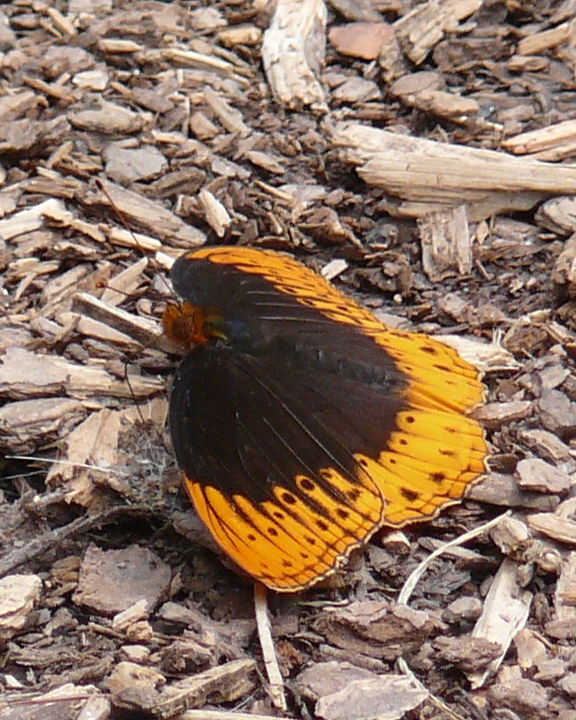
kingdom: Animalia
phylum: Arthropoda
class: Insecta
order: Lepidoptera
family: Nymphalidae
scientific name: Nymphalidae
